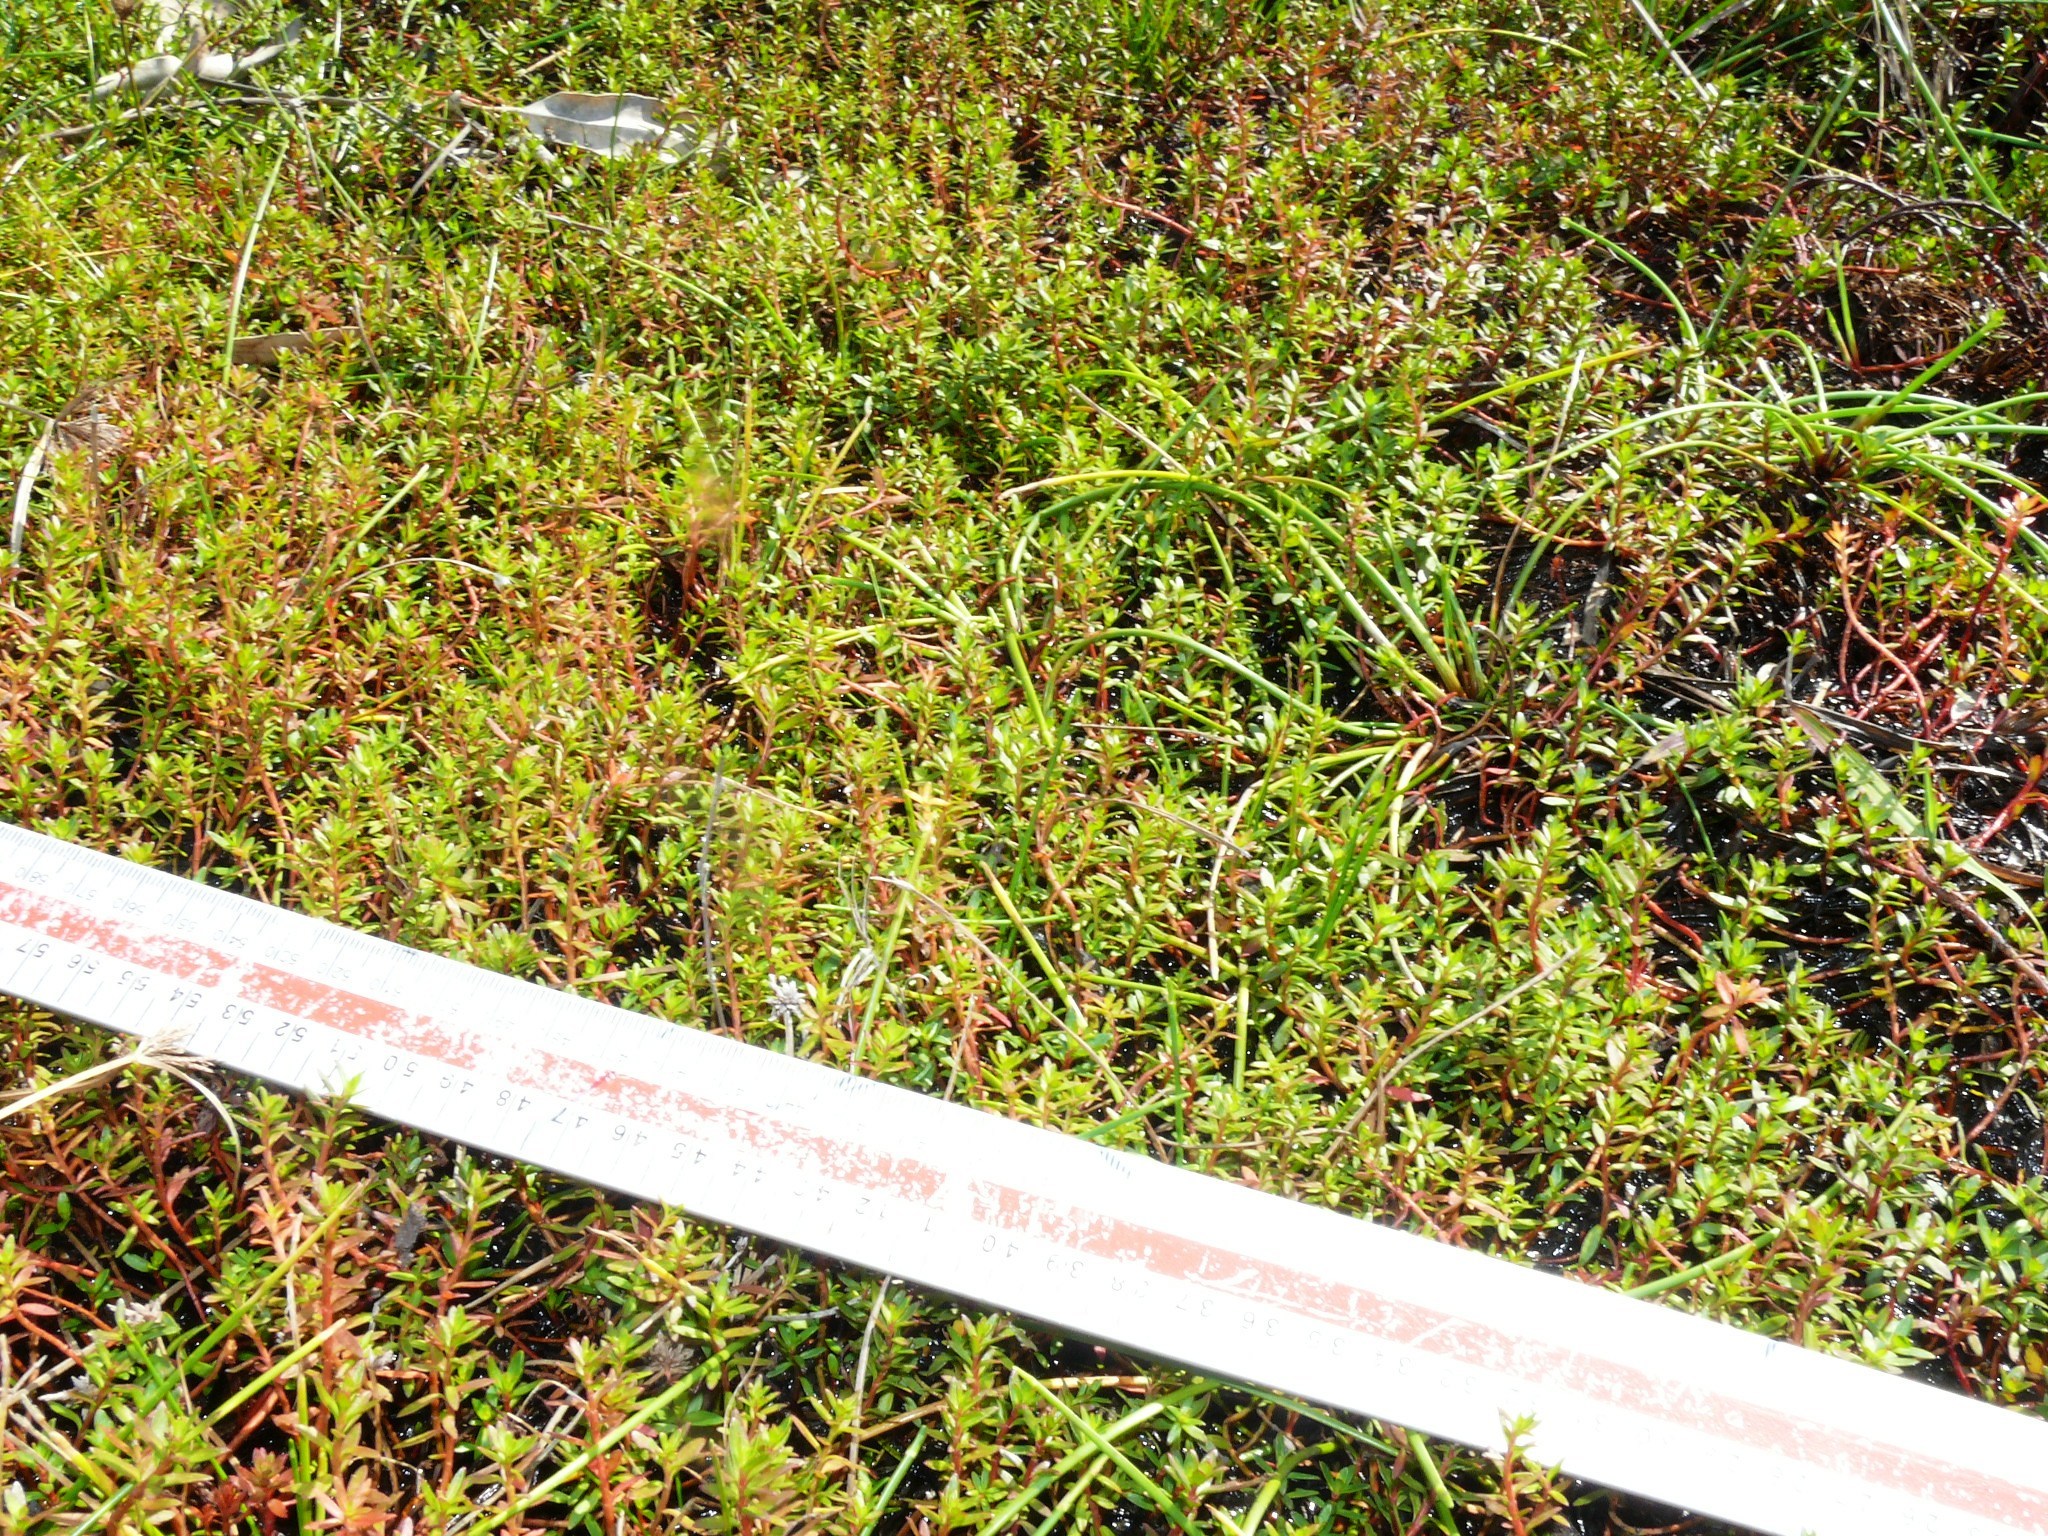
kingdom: Plantae
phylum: Tracheophyta
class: Magnoliopsida
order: Saxifragales
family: Haloragaceae
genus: Laurembergia
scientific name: Laurembergia repens
